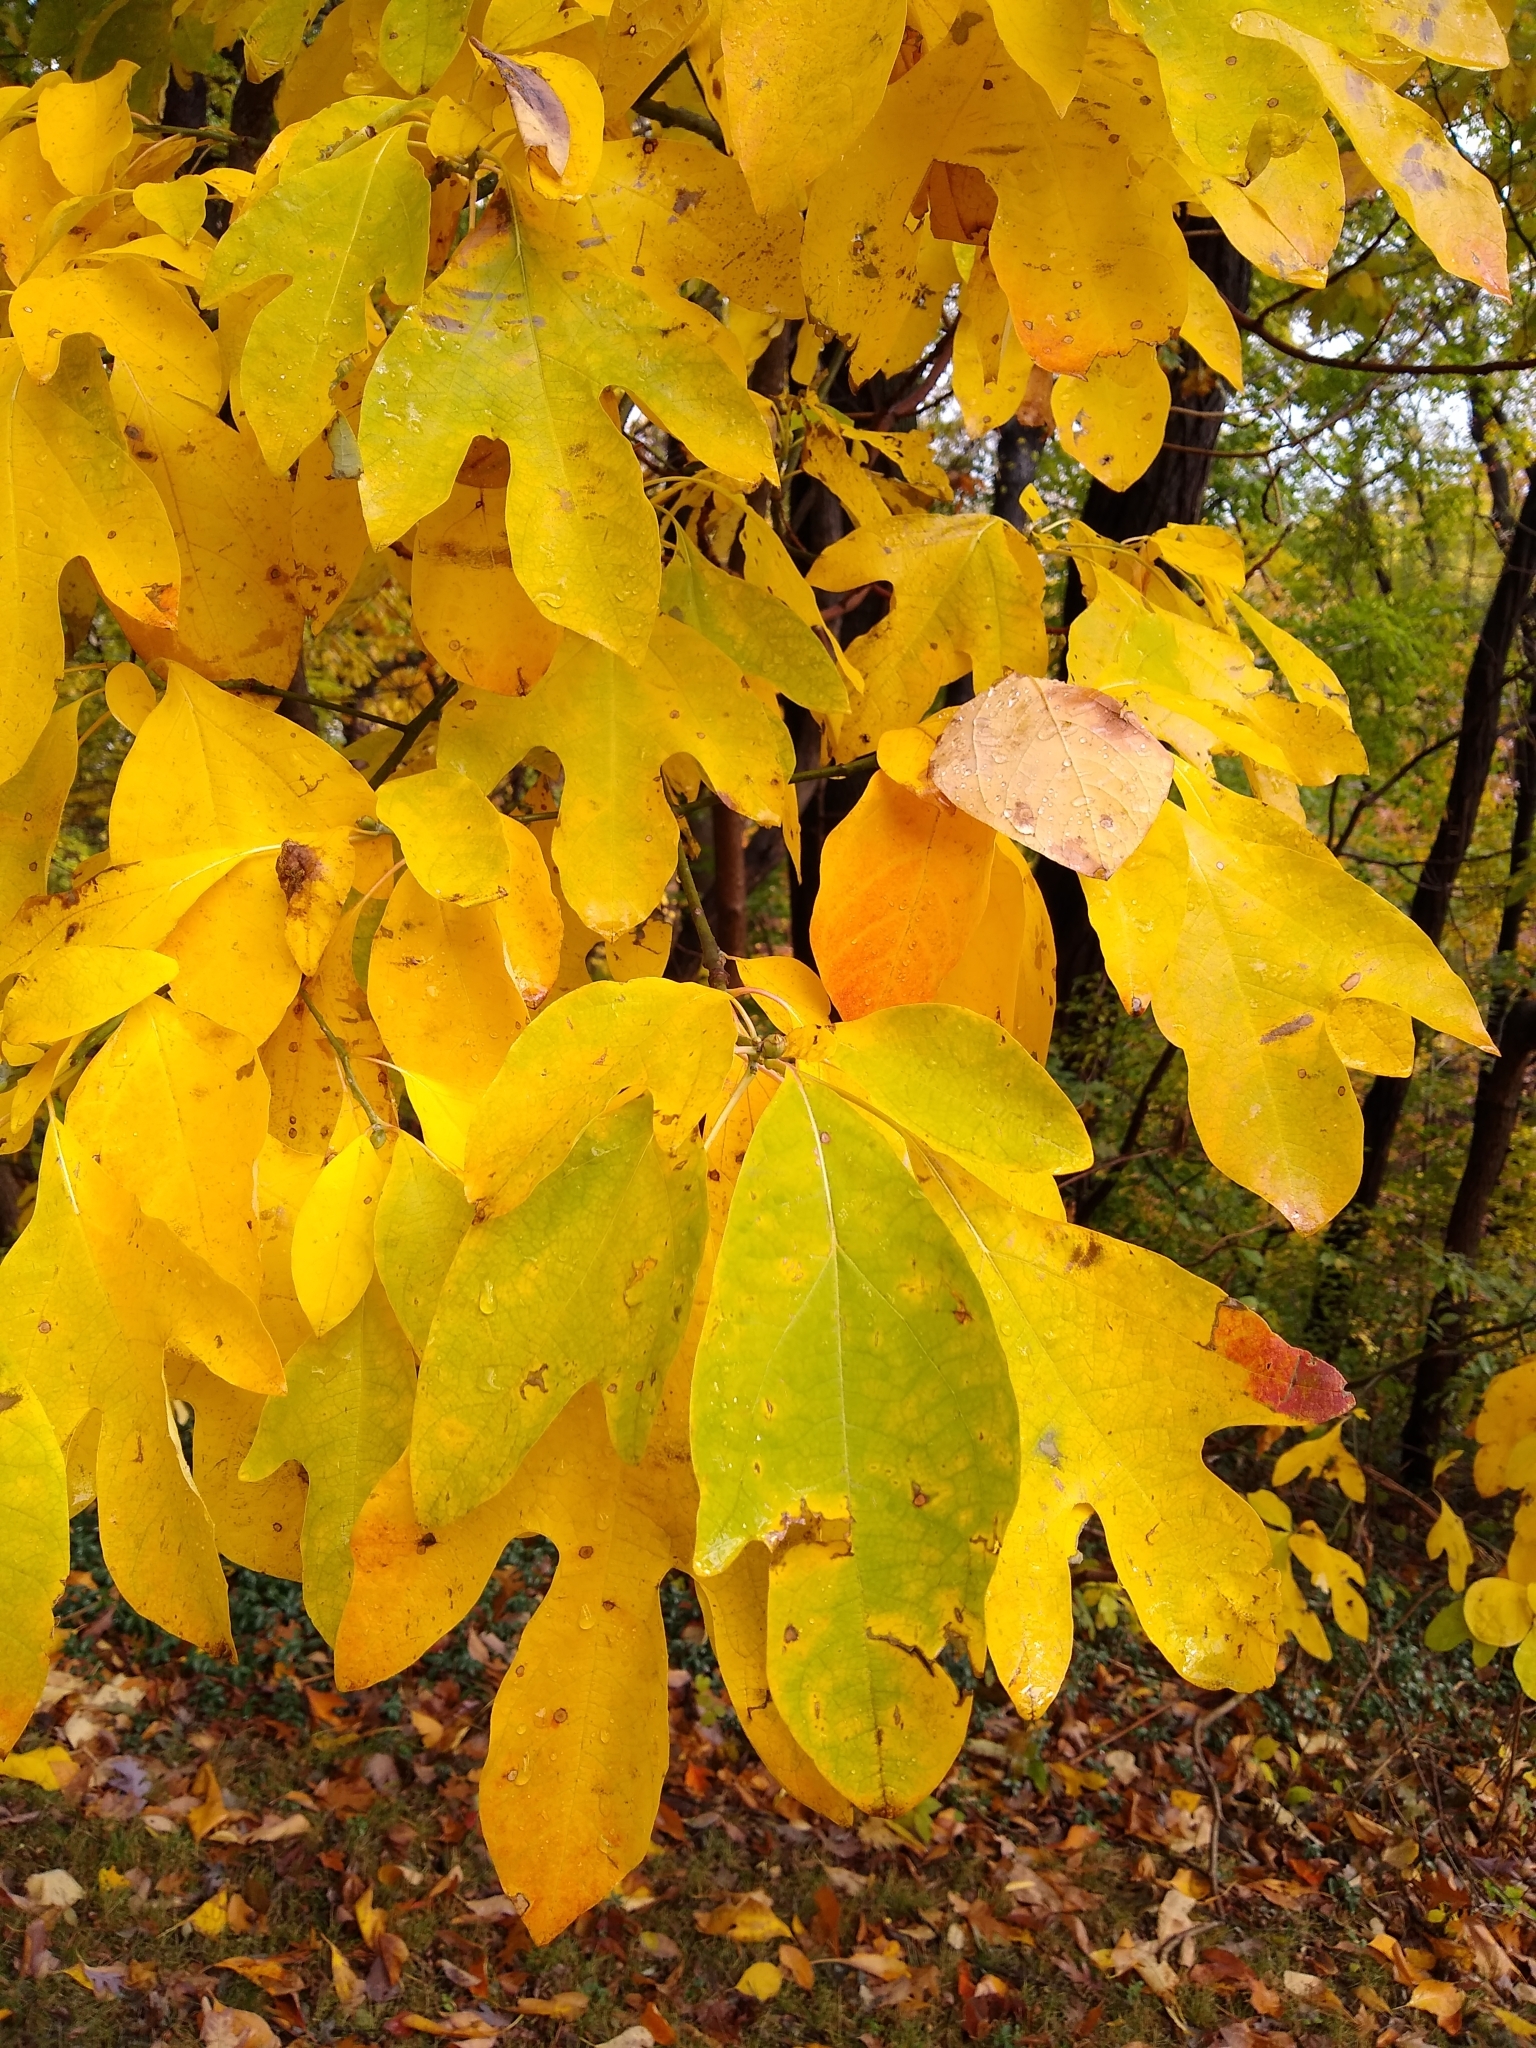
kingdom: Plantae
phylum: Tracheophyta
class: Magnoliopsida
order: Laurales
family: Lauraceae
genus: Sassafras
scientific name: Sassafras albidum
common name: Sassafras
